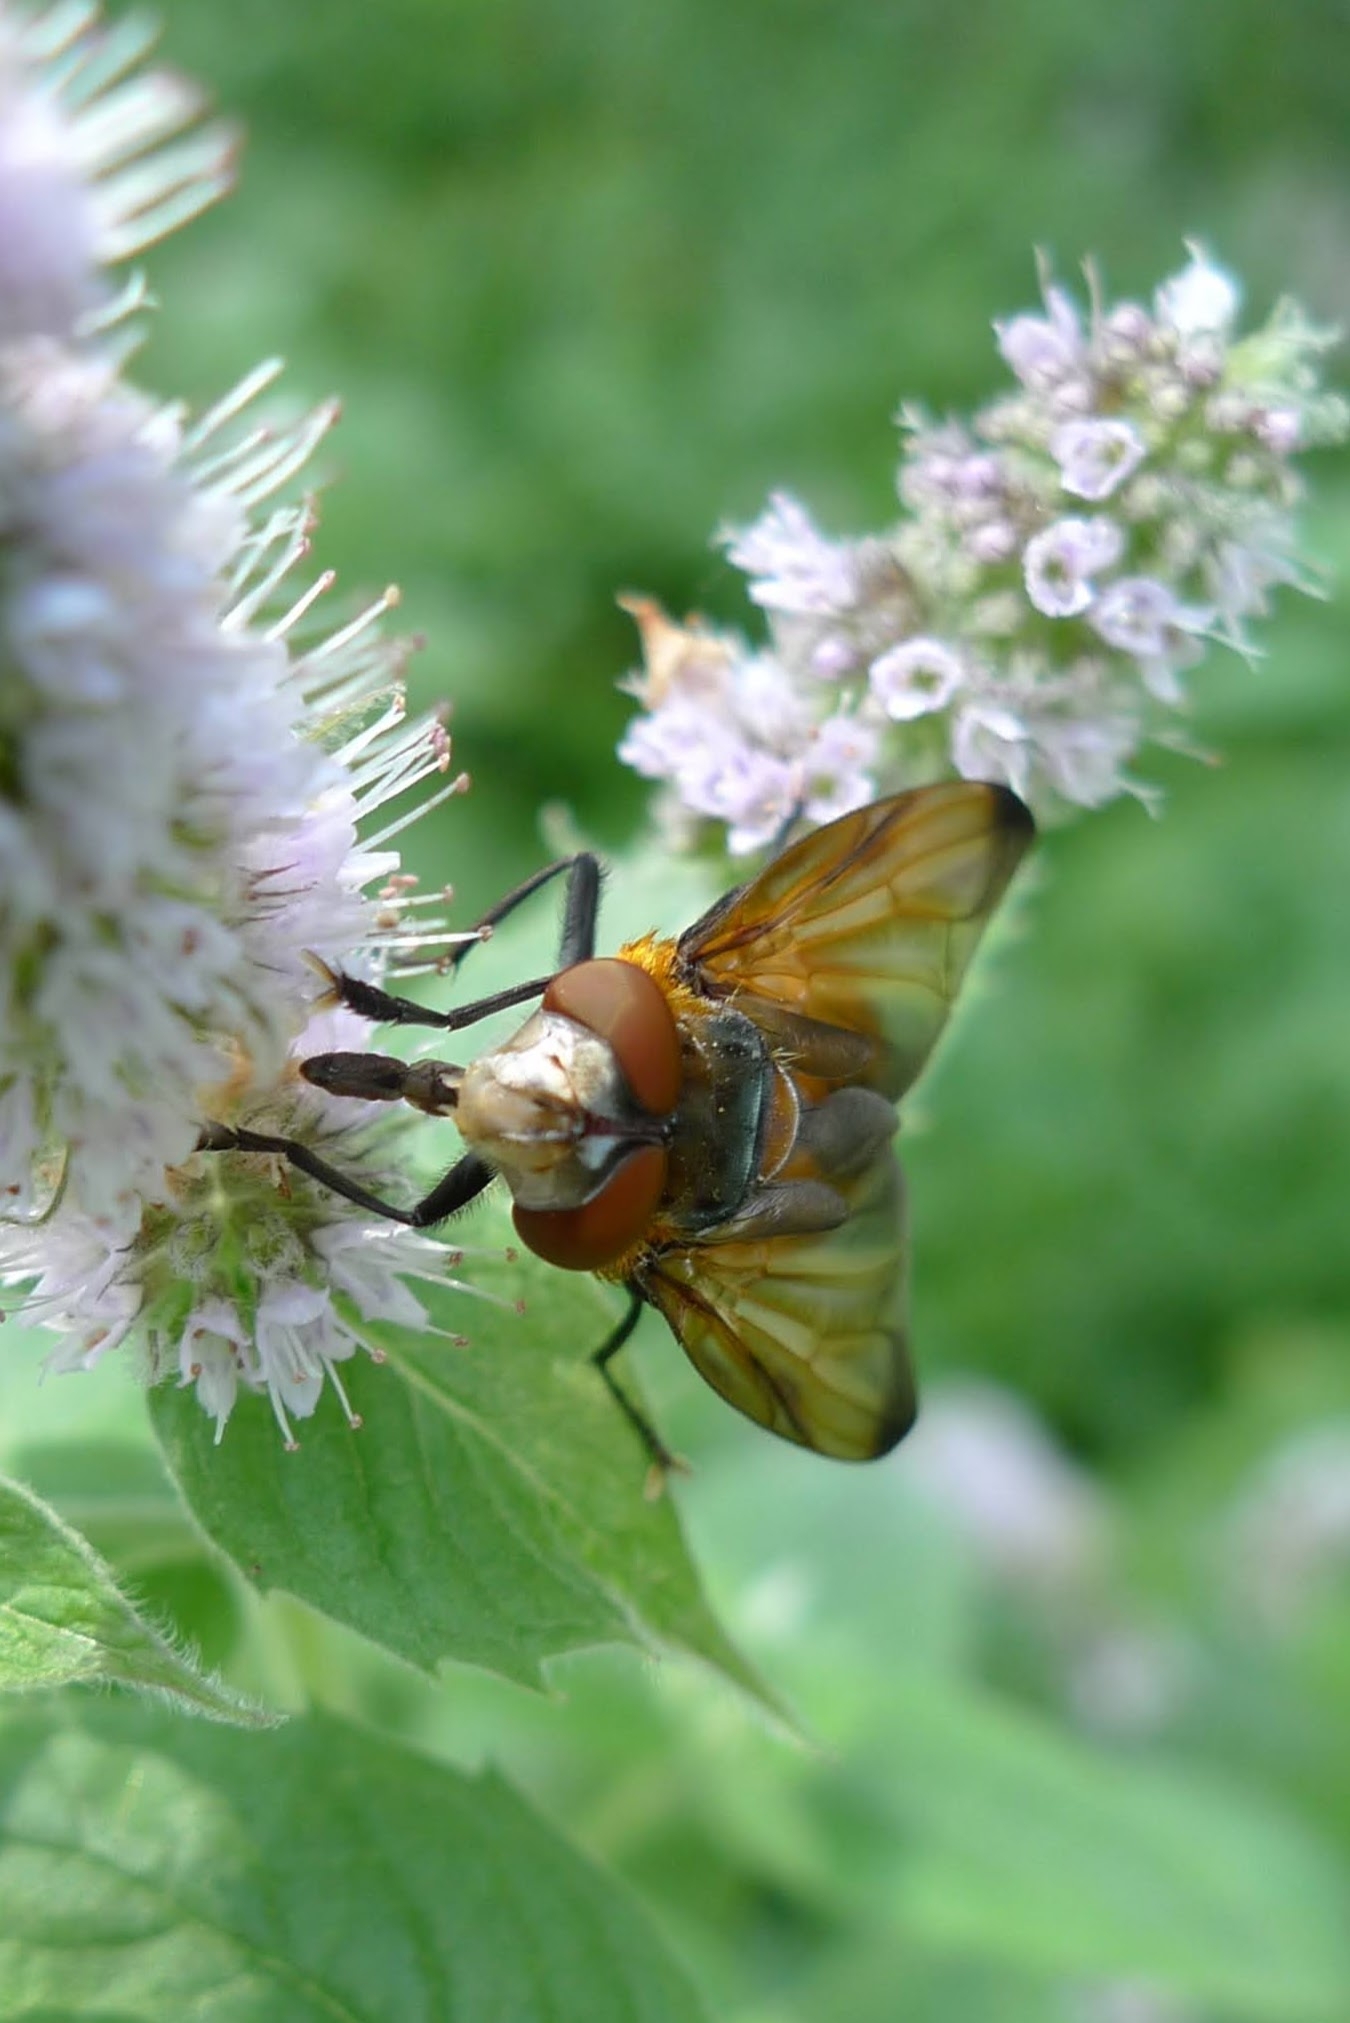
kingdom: Animalia
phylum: Arthropoda
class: Insecta
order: Diptera
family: Tachinidae
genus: Phasia
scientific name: Phasia hemiptera
